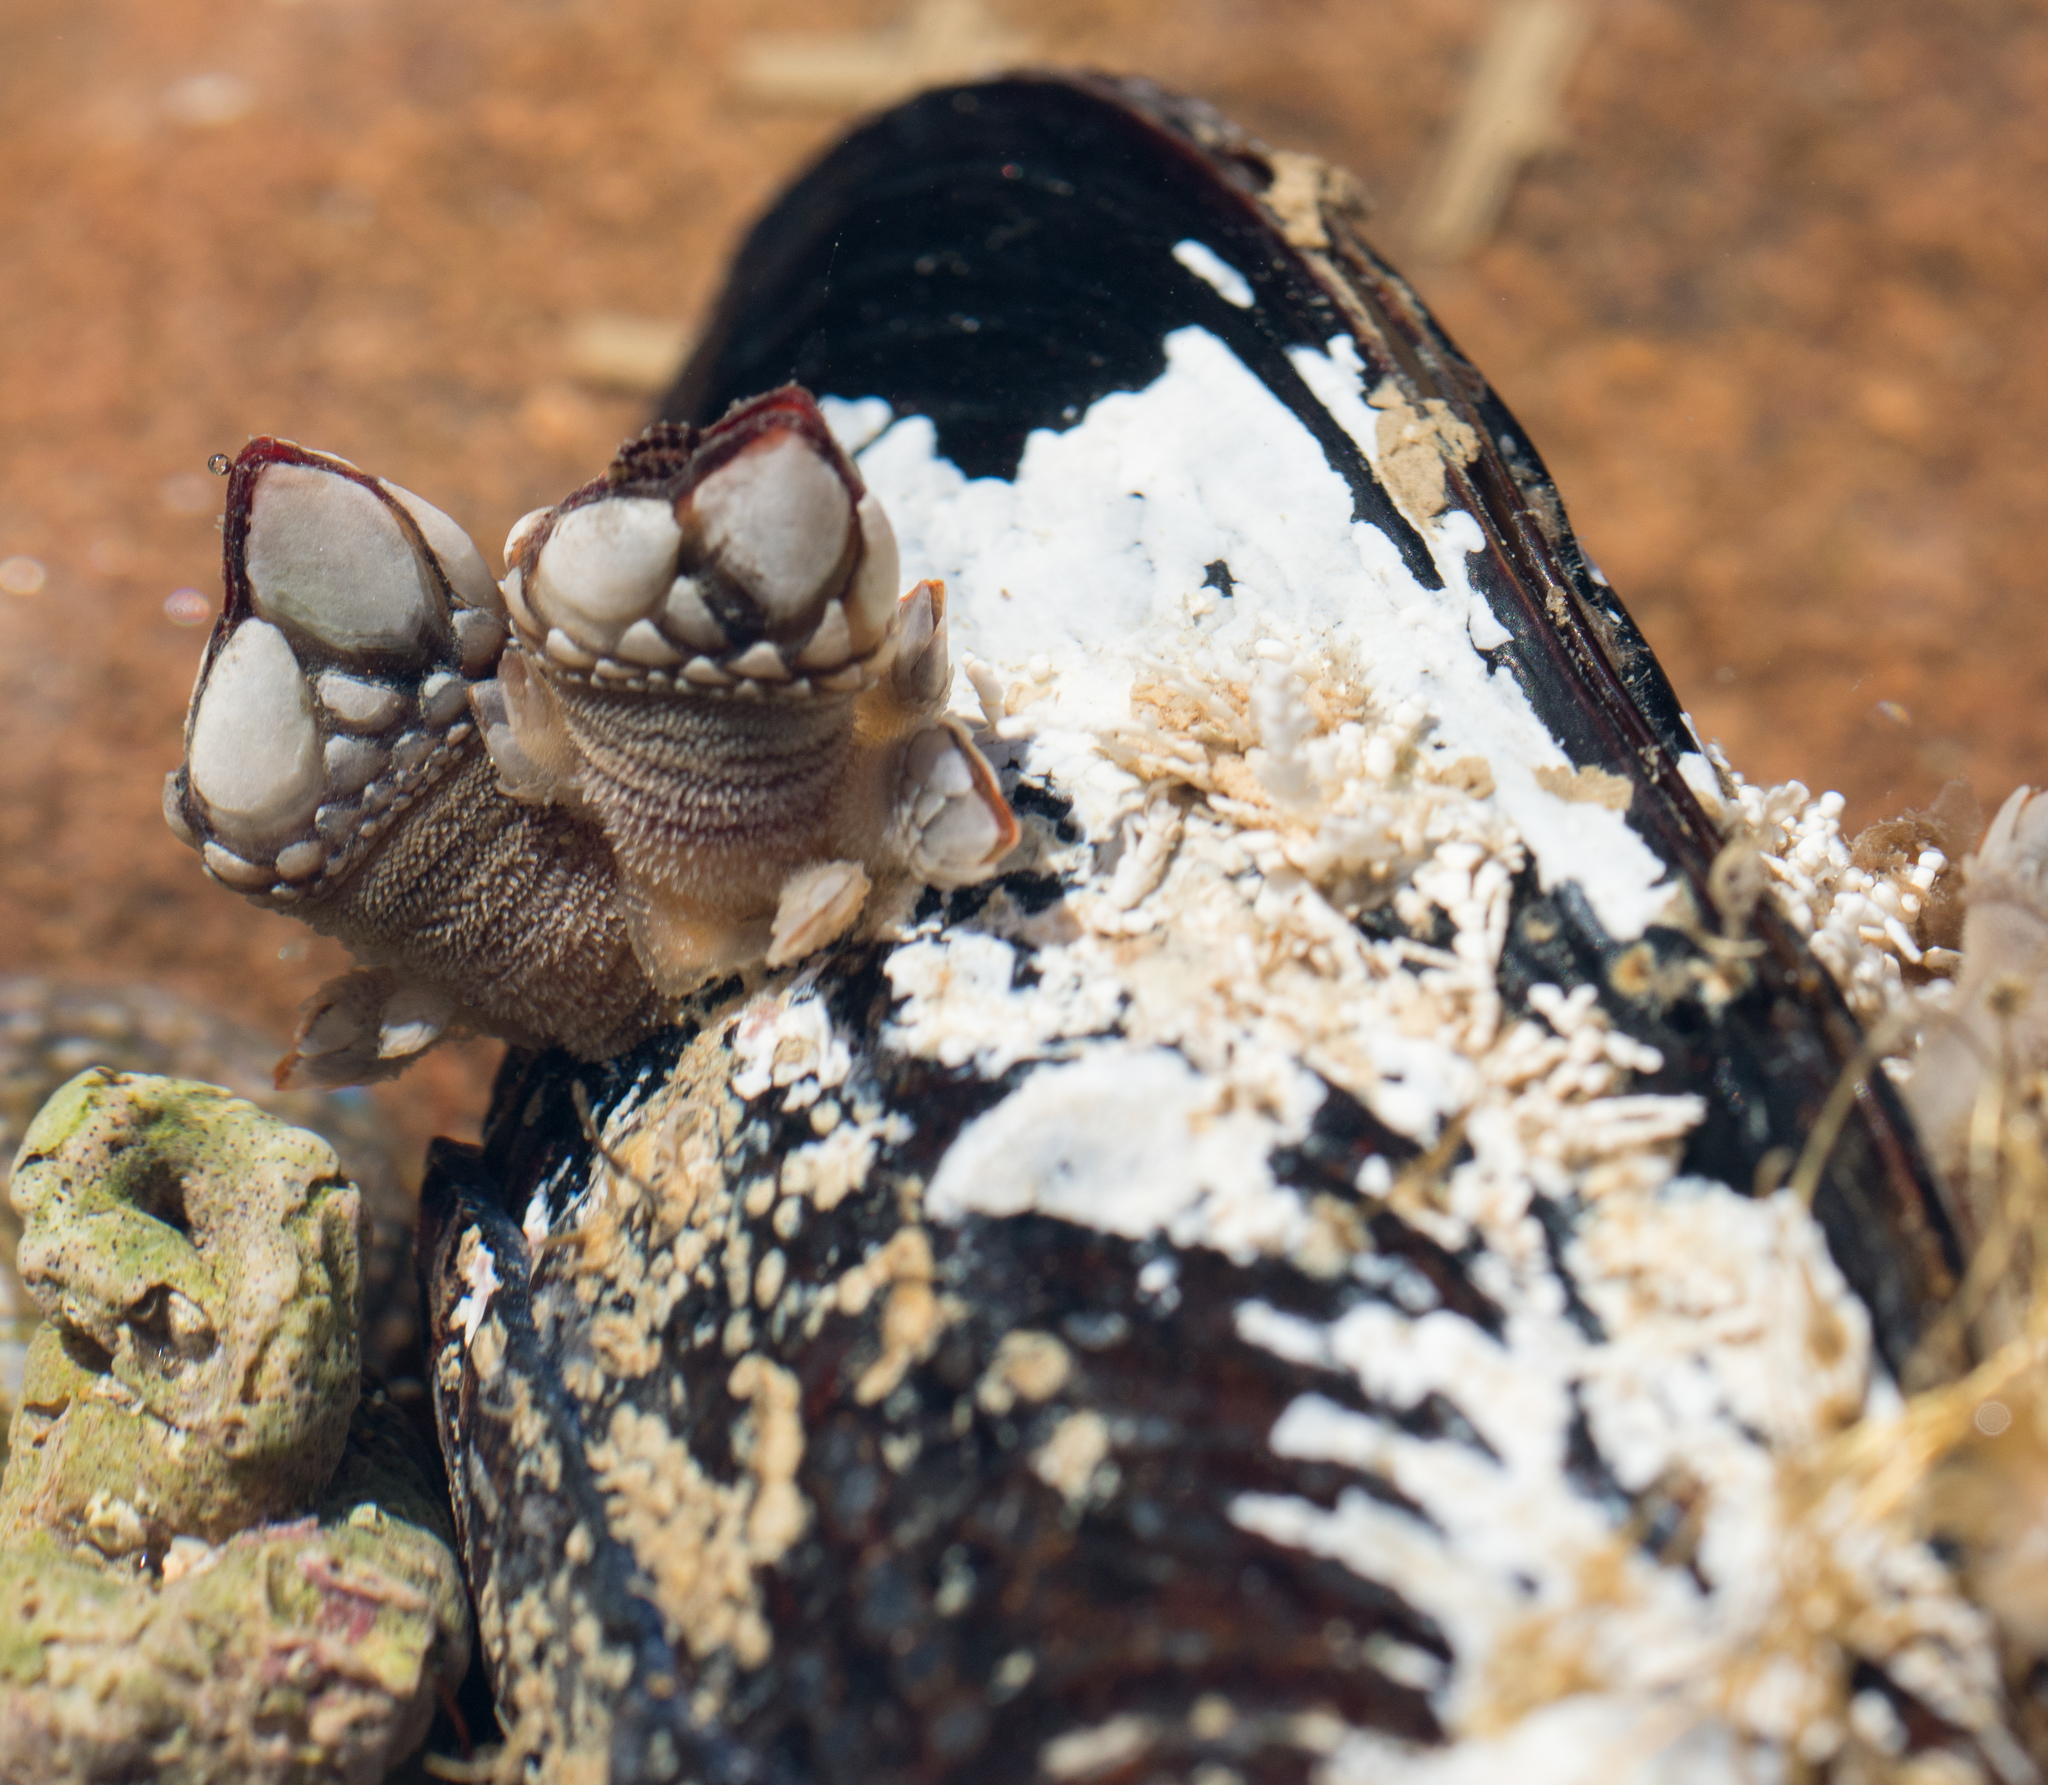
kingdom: Animalia
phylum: Arthropoda
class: Maxillopoda
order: Pedunculata
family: Pollicipedidae
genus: Pollicipes
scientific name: Pollicipes polymerus
